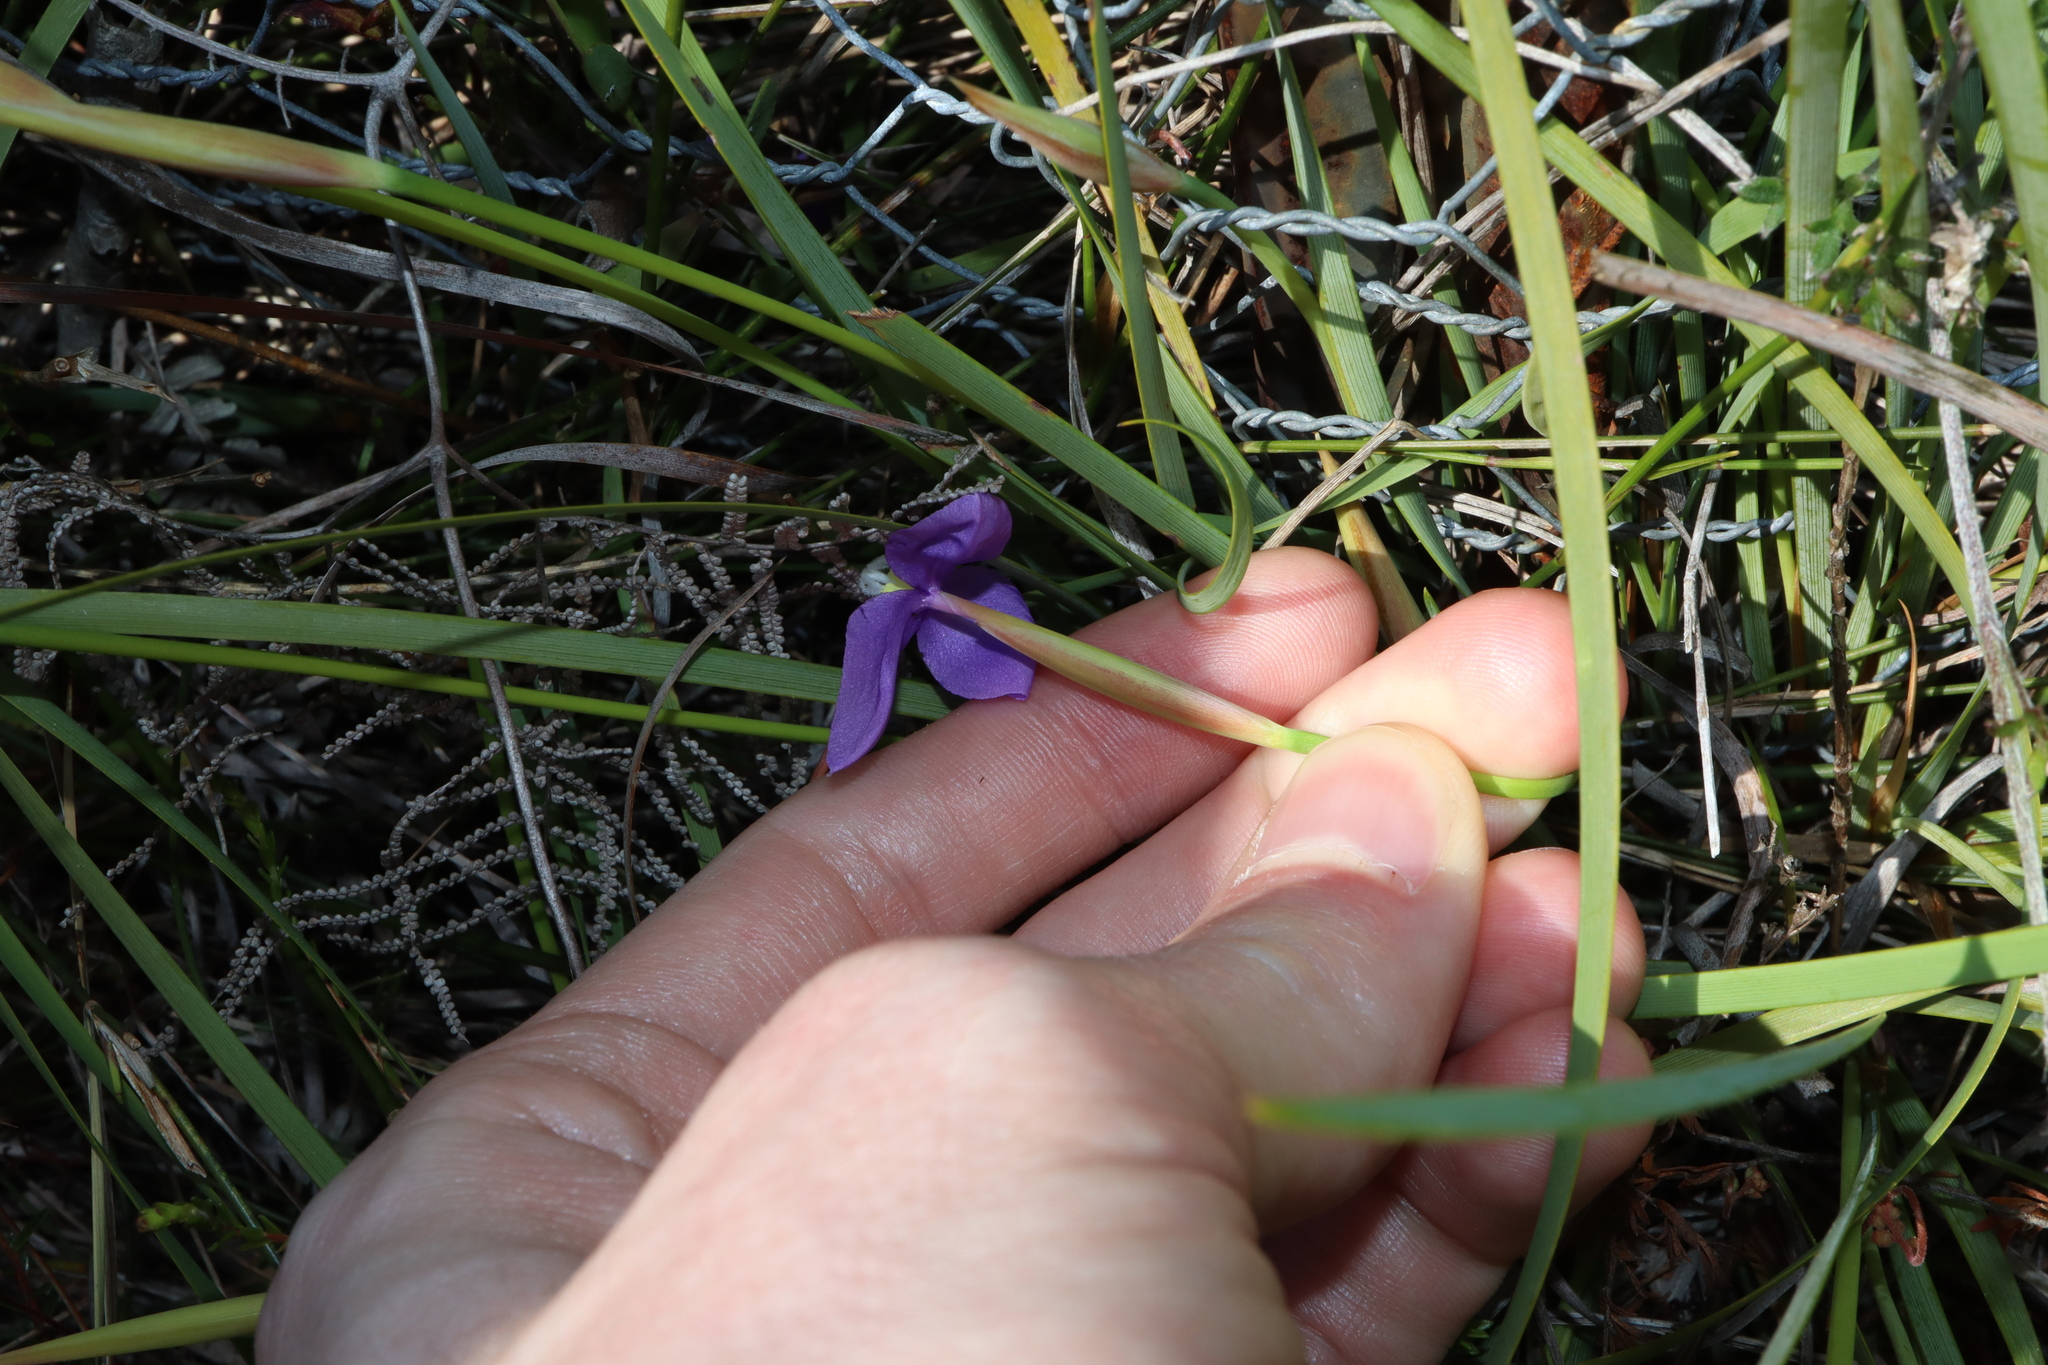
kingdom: Plantae
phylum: Tracheophyta
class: Liliopsida
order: Asparagales
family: Iridaceae
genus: Patersonia
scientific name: Patersonia fragilis
